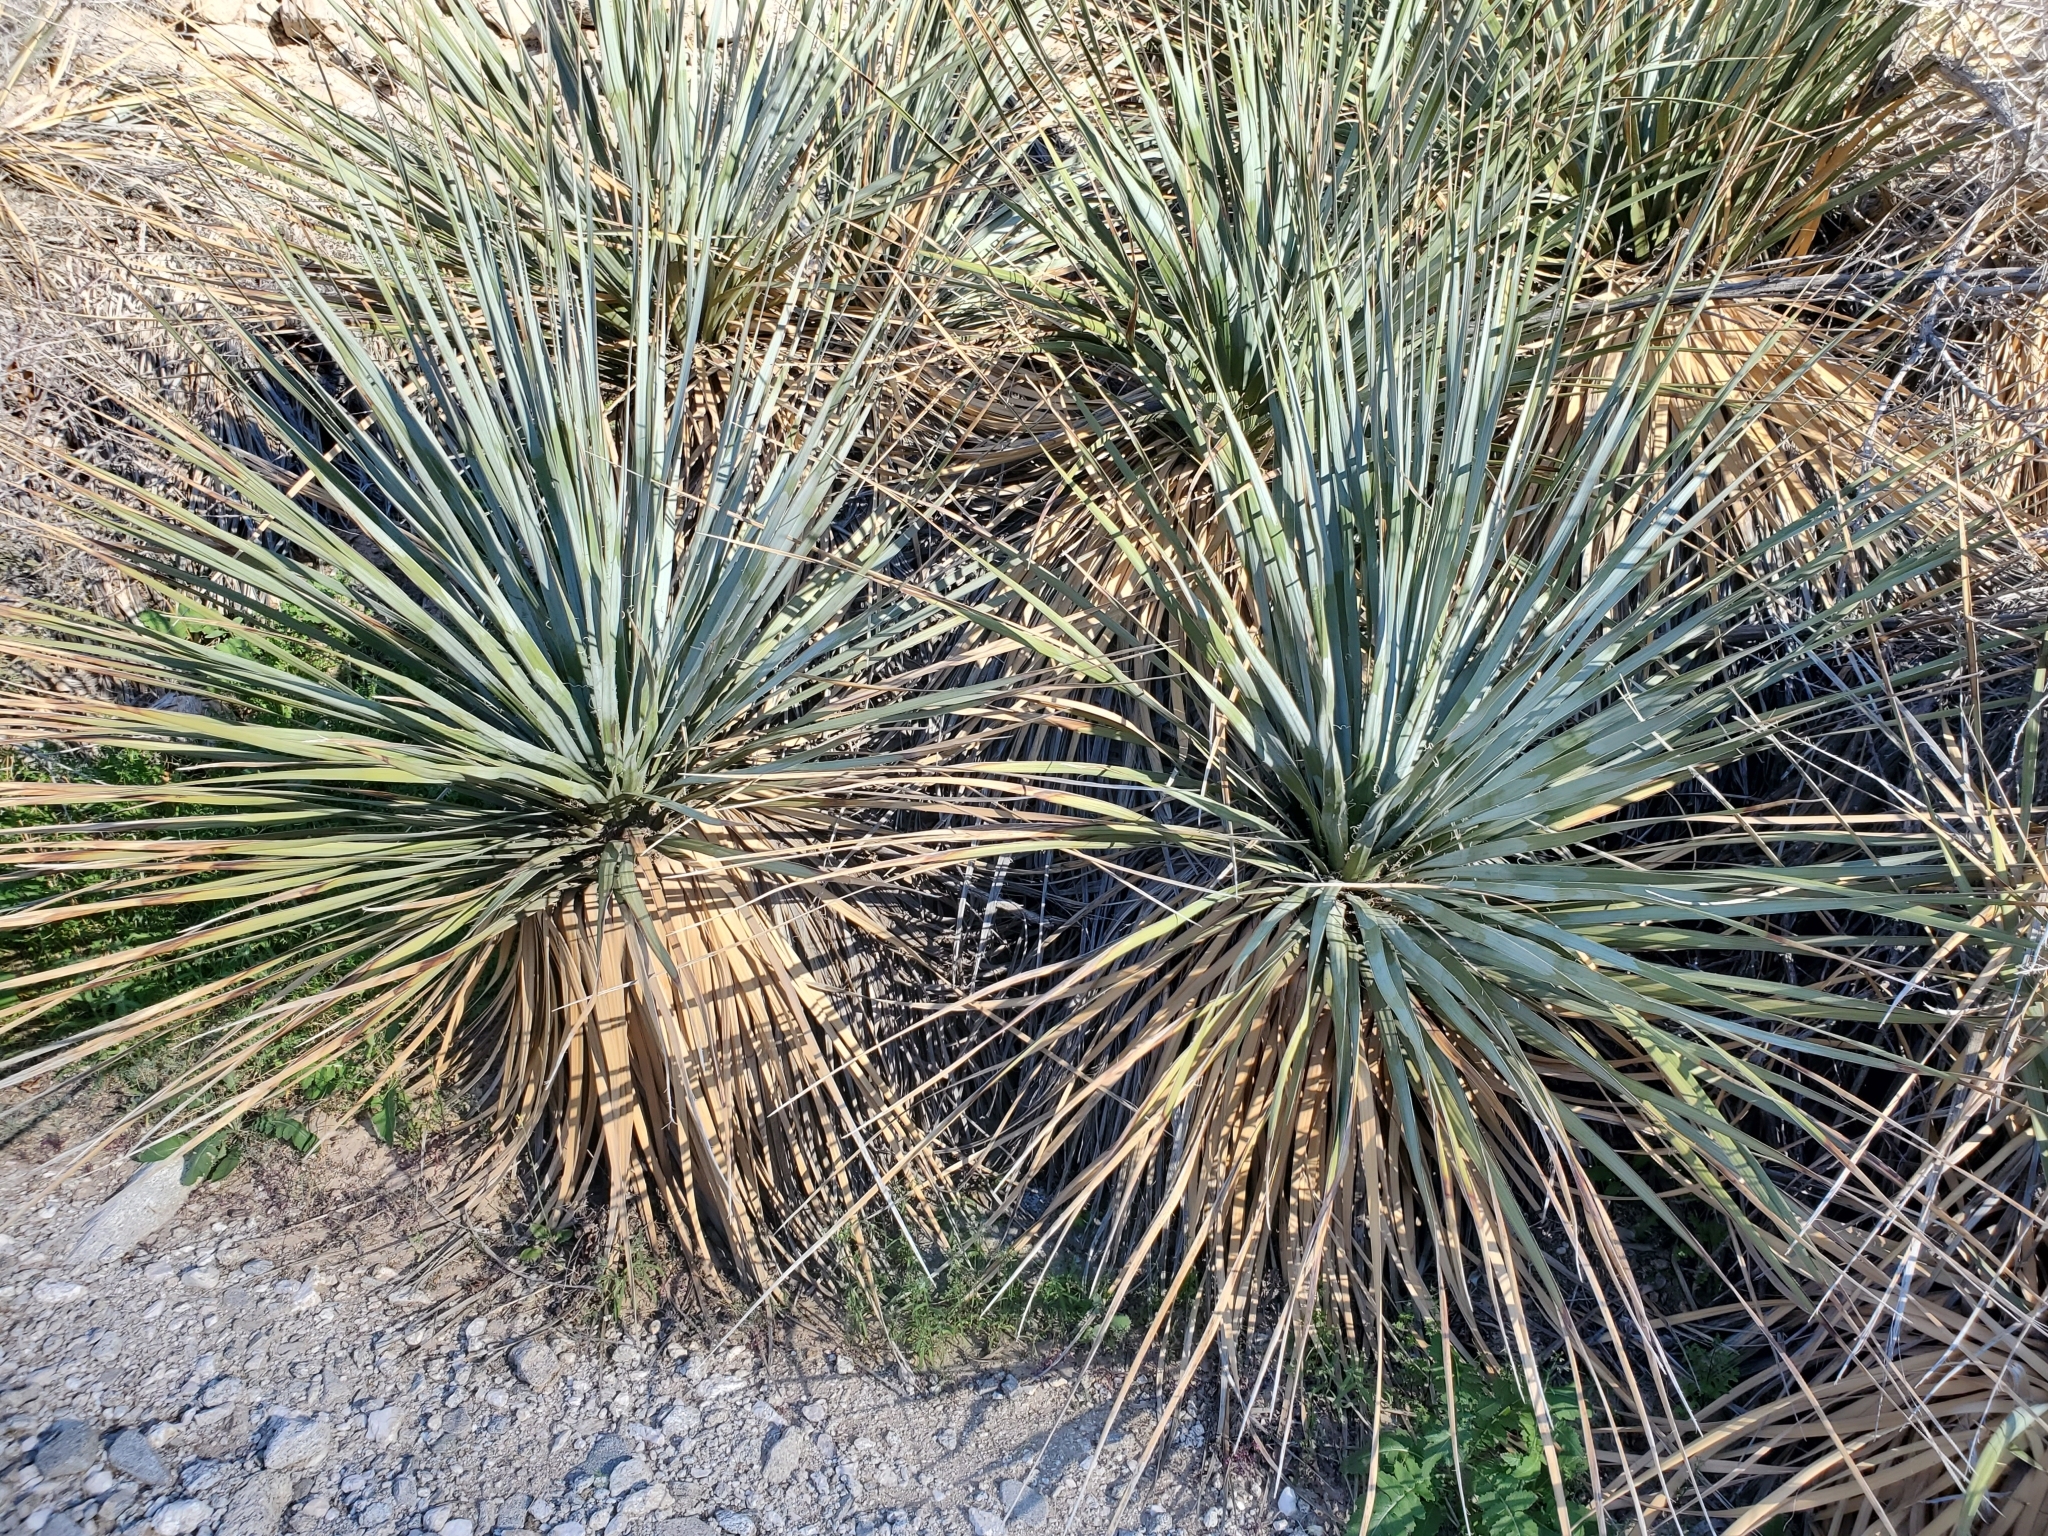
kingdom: Plantae
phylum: Tracheophyta
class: Liliopsida
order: Asparagales
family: Asparagaceae
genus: Nolina
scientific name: Nolina bigelovii
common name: Bigelow bear-grass
